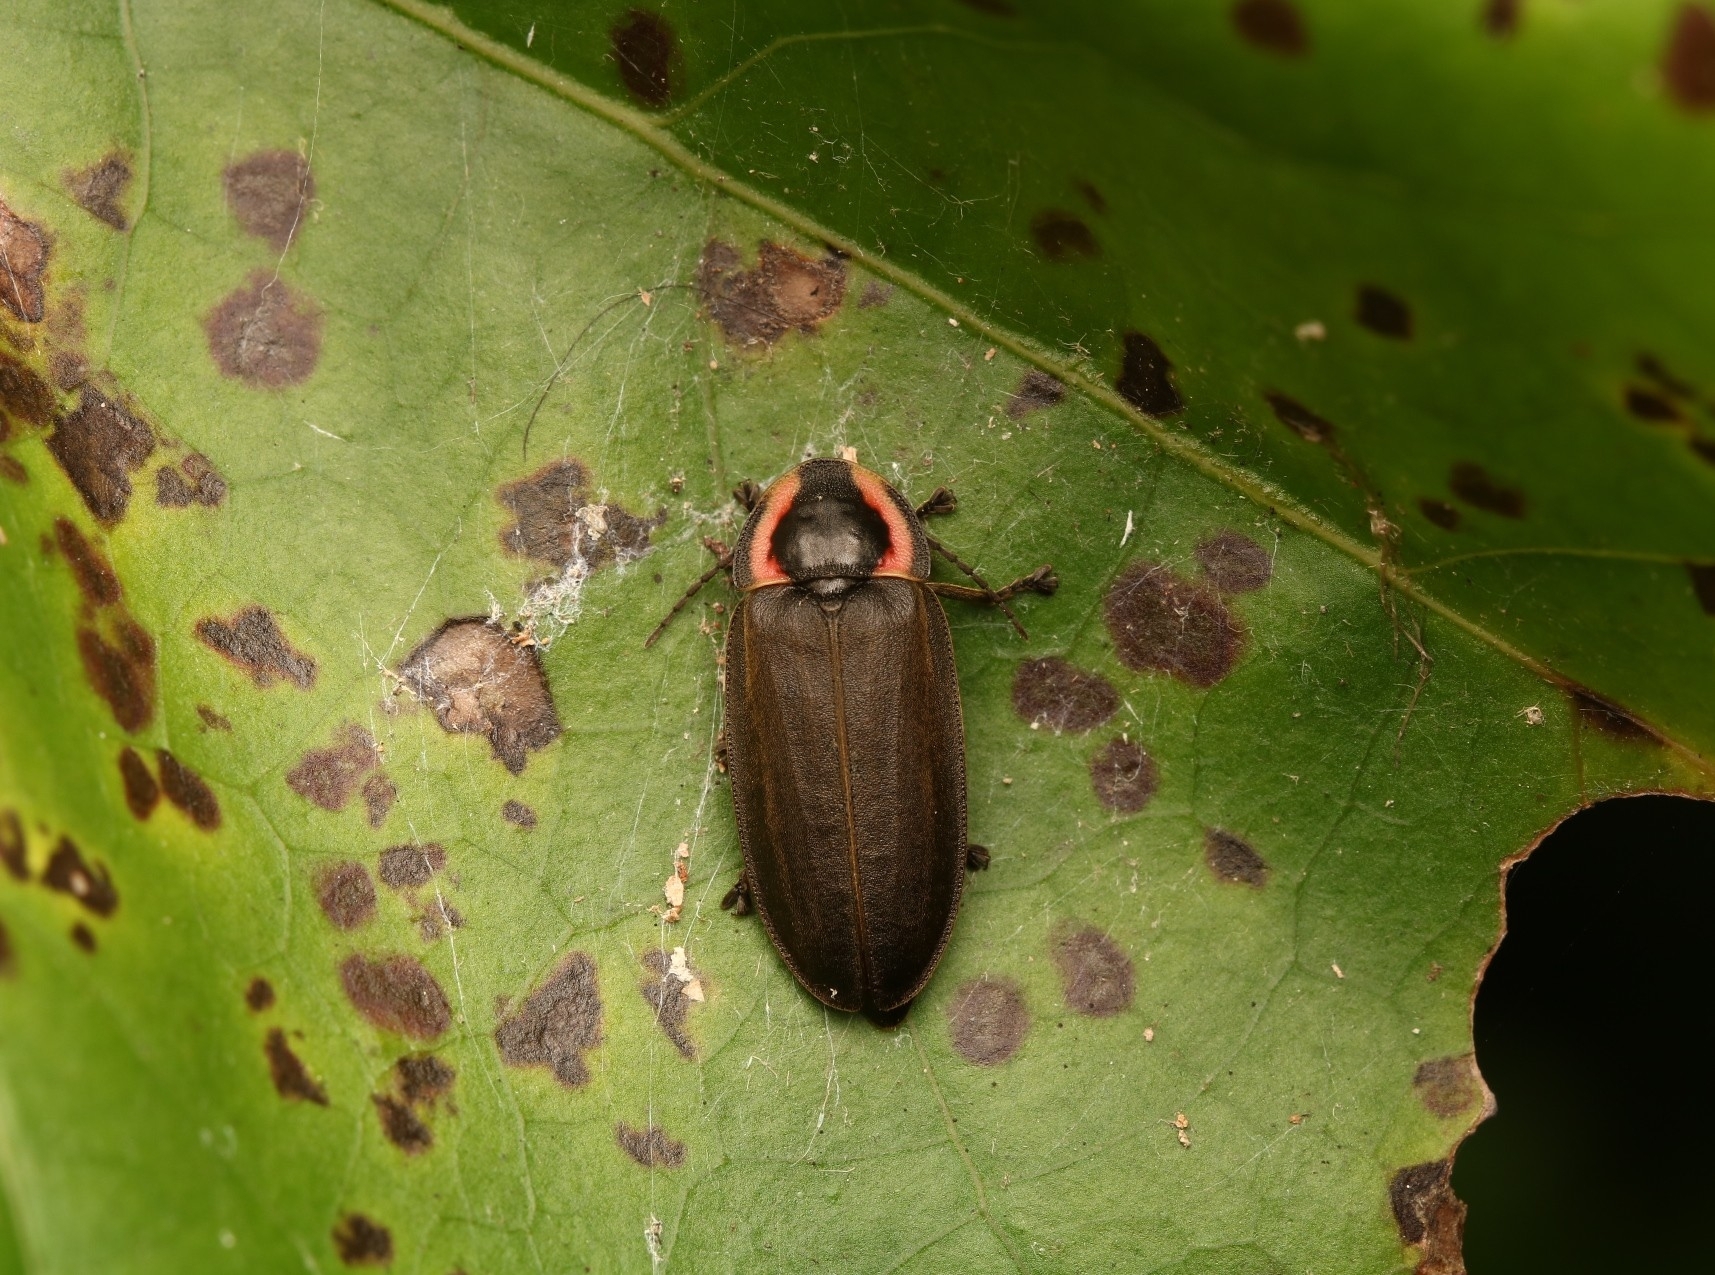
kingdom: Animalia
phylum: Arthropoda
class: Insecta
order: Coleoptera
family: Lampyridae
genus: Photinus
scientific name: Photinus corrusca
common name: Winter firefly
